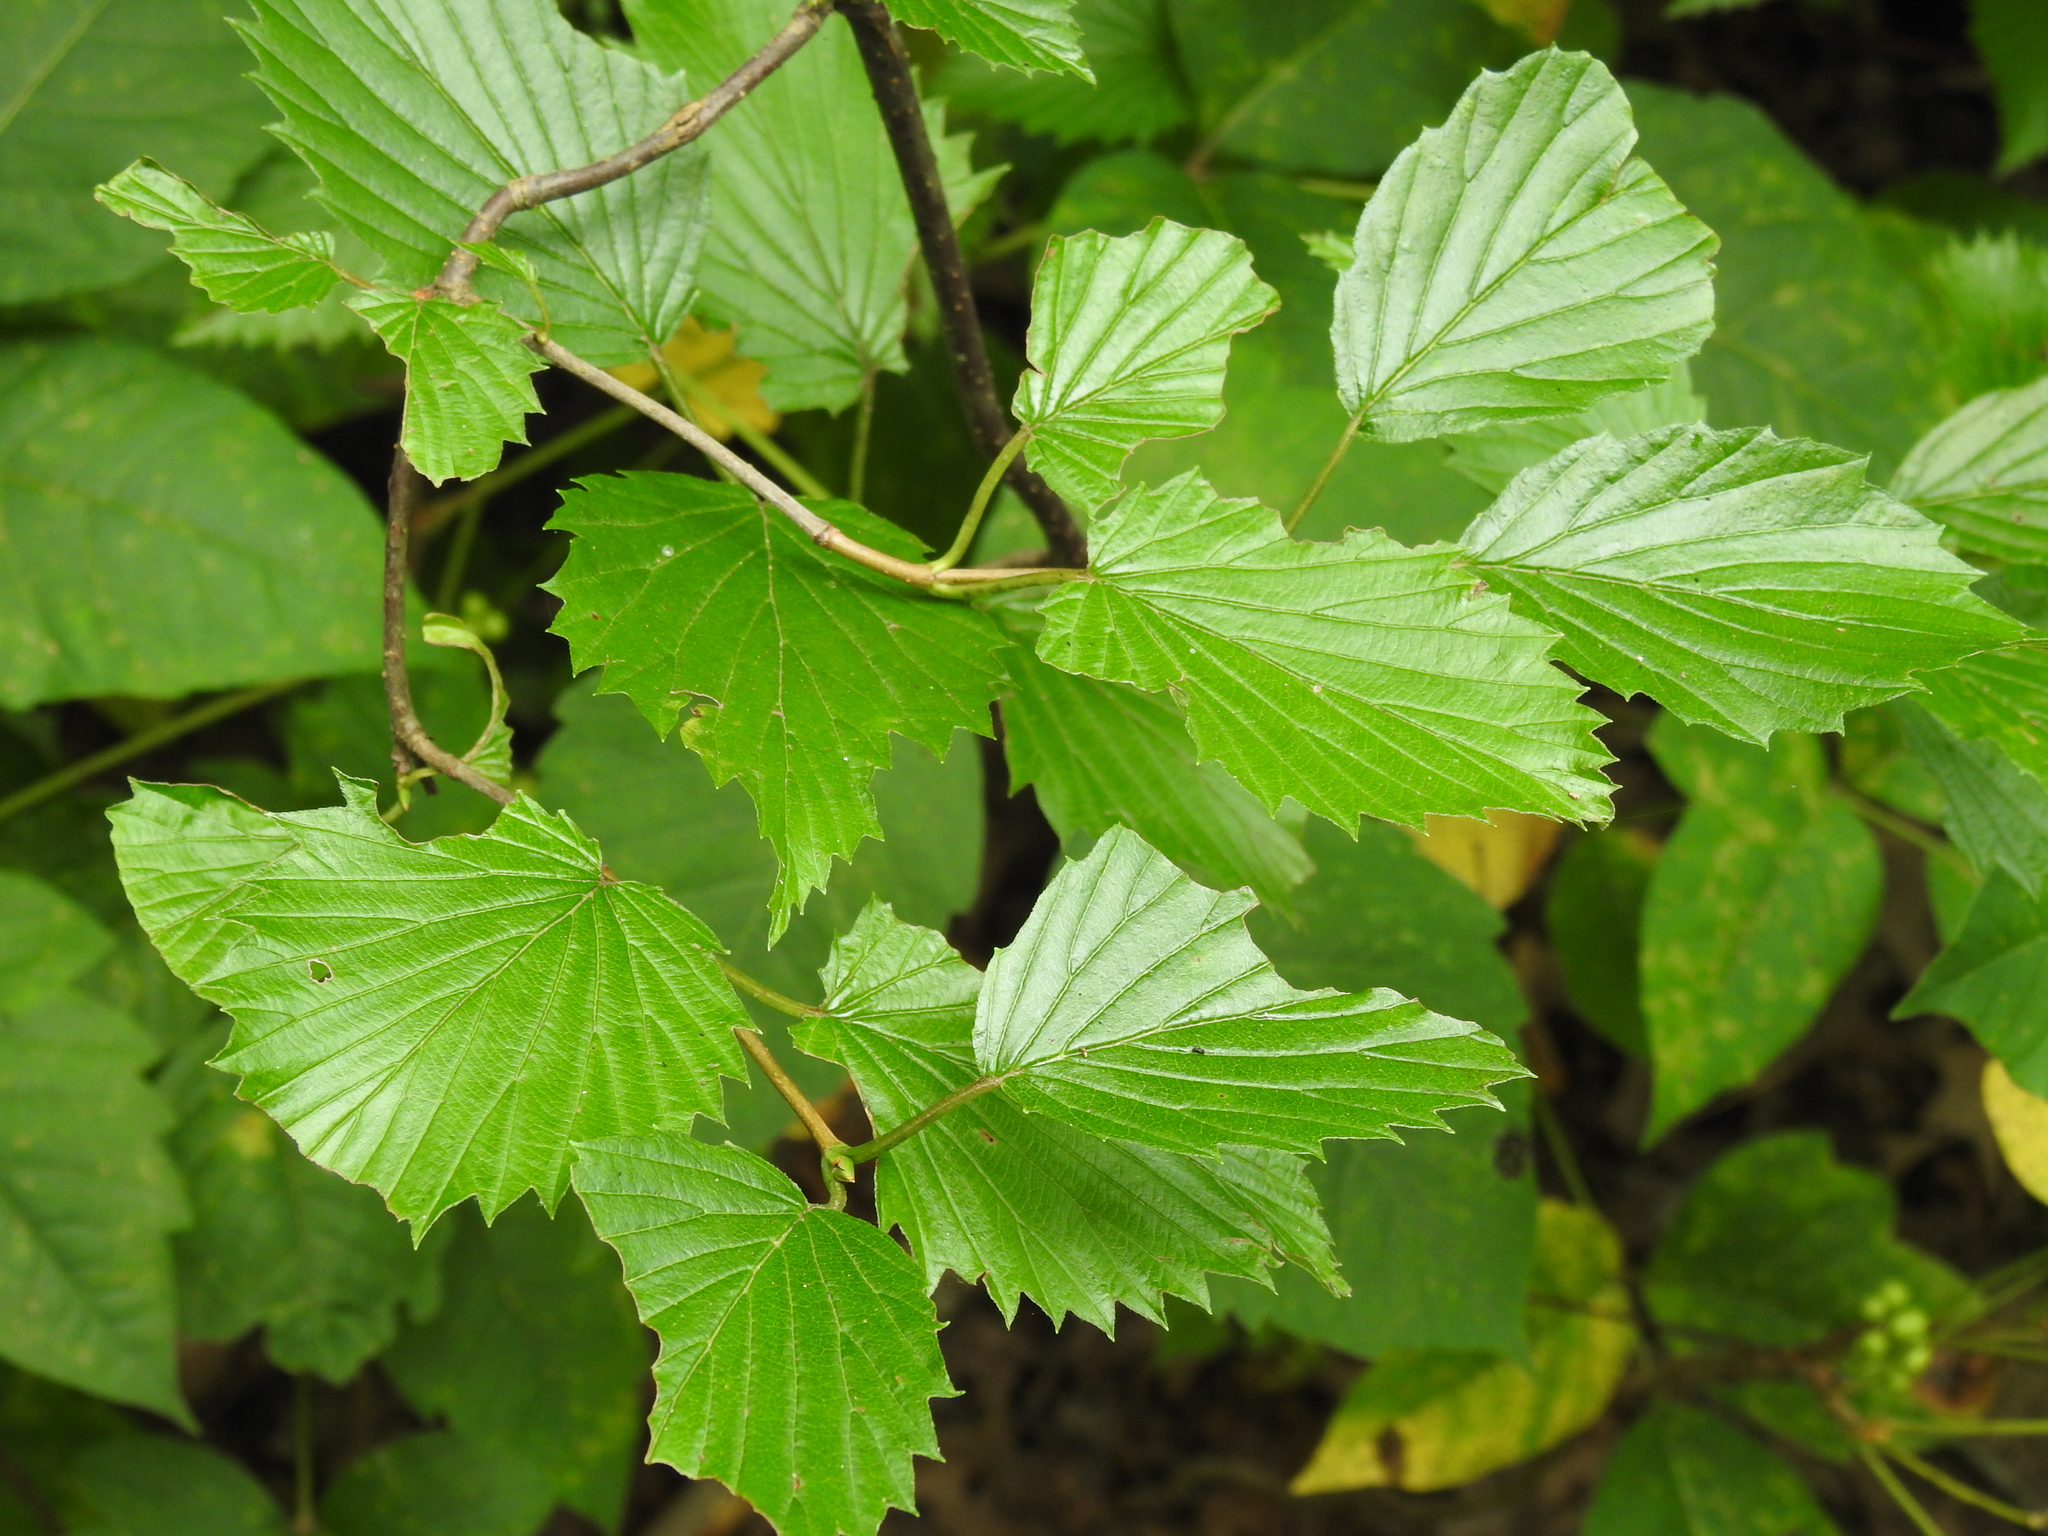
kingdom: Plantae
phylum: Tracheophyta
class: Magnoliopsida
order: Dipsacales
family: Viburnaceae
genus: Viburnum
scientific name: Viburnum recognitum
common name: Northern arrow-wood
